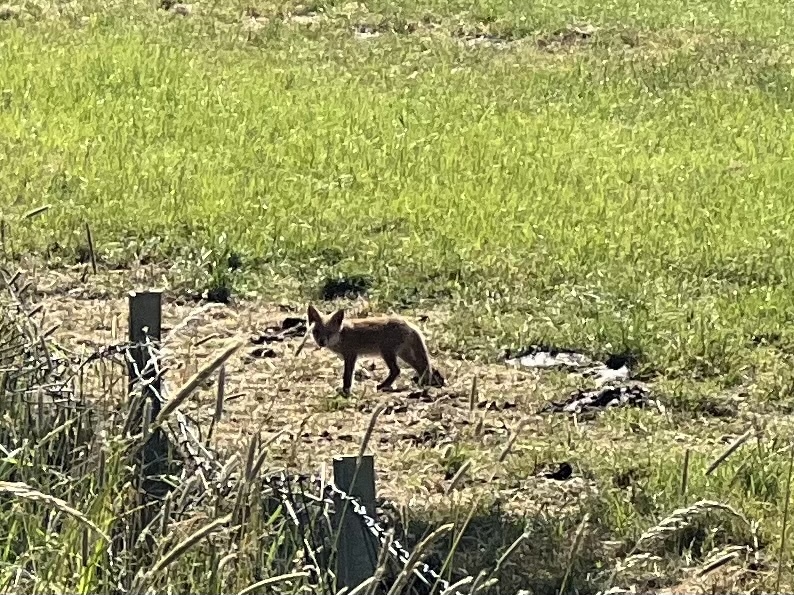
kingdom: Animalia
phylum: Chordata
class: Mammalia
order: Carnivora
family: Canidae
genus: Vulpes
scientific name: Vulpes vulpes
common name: Red fox
